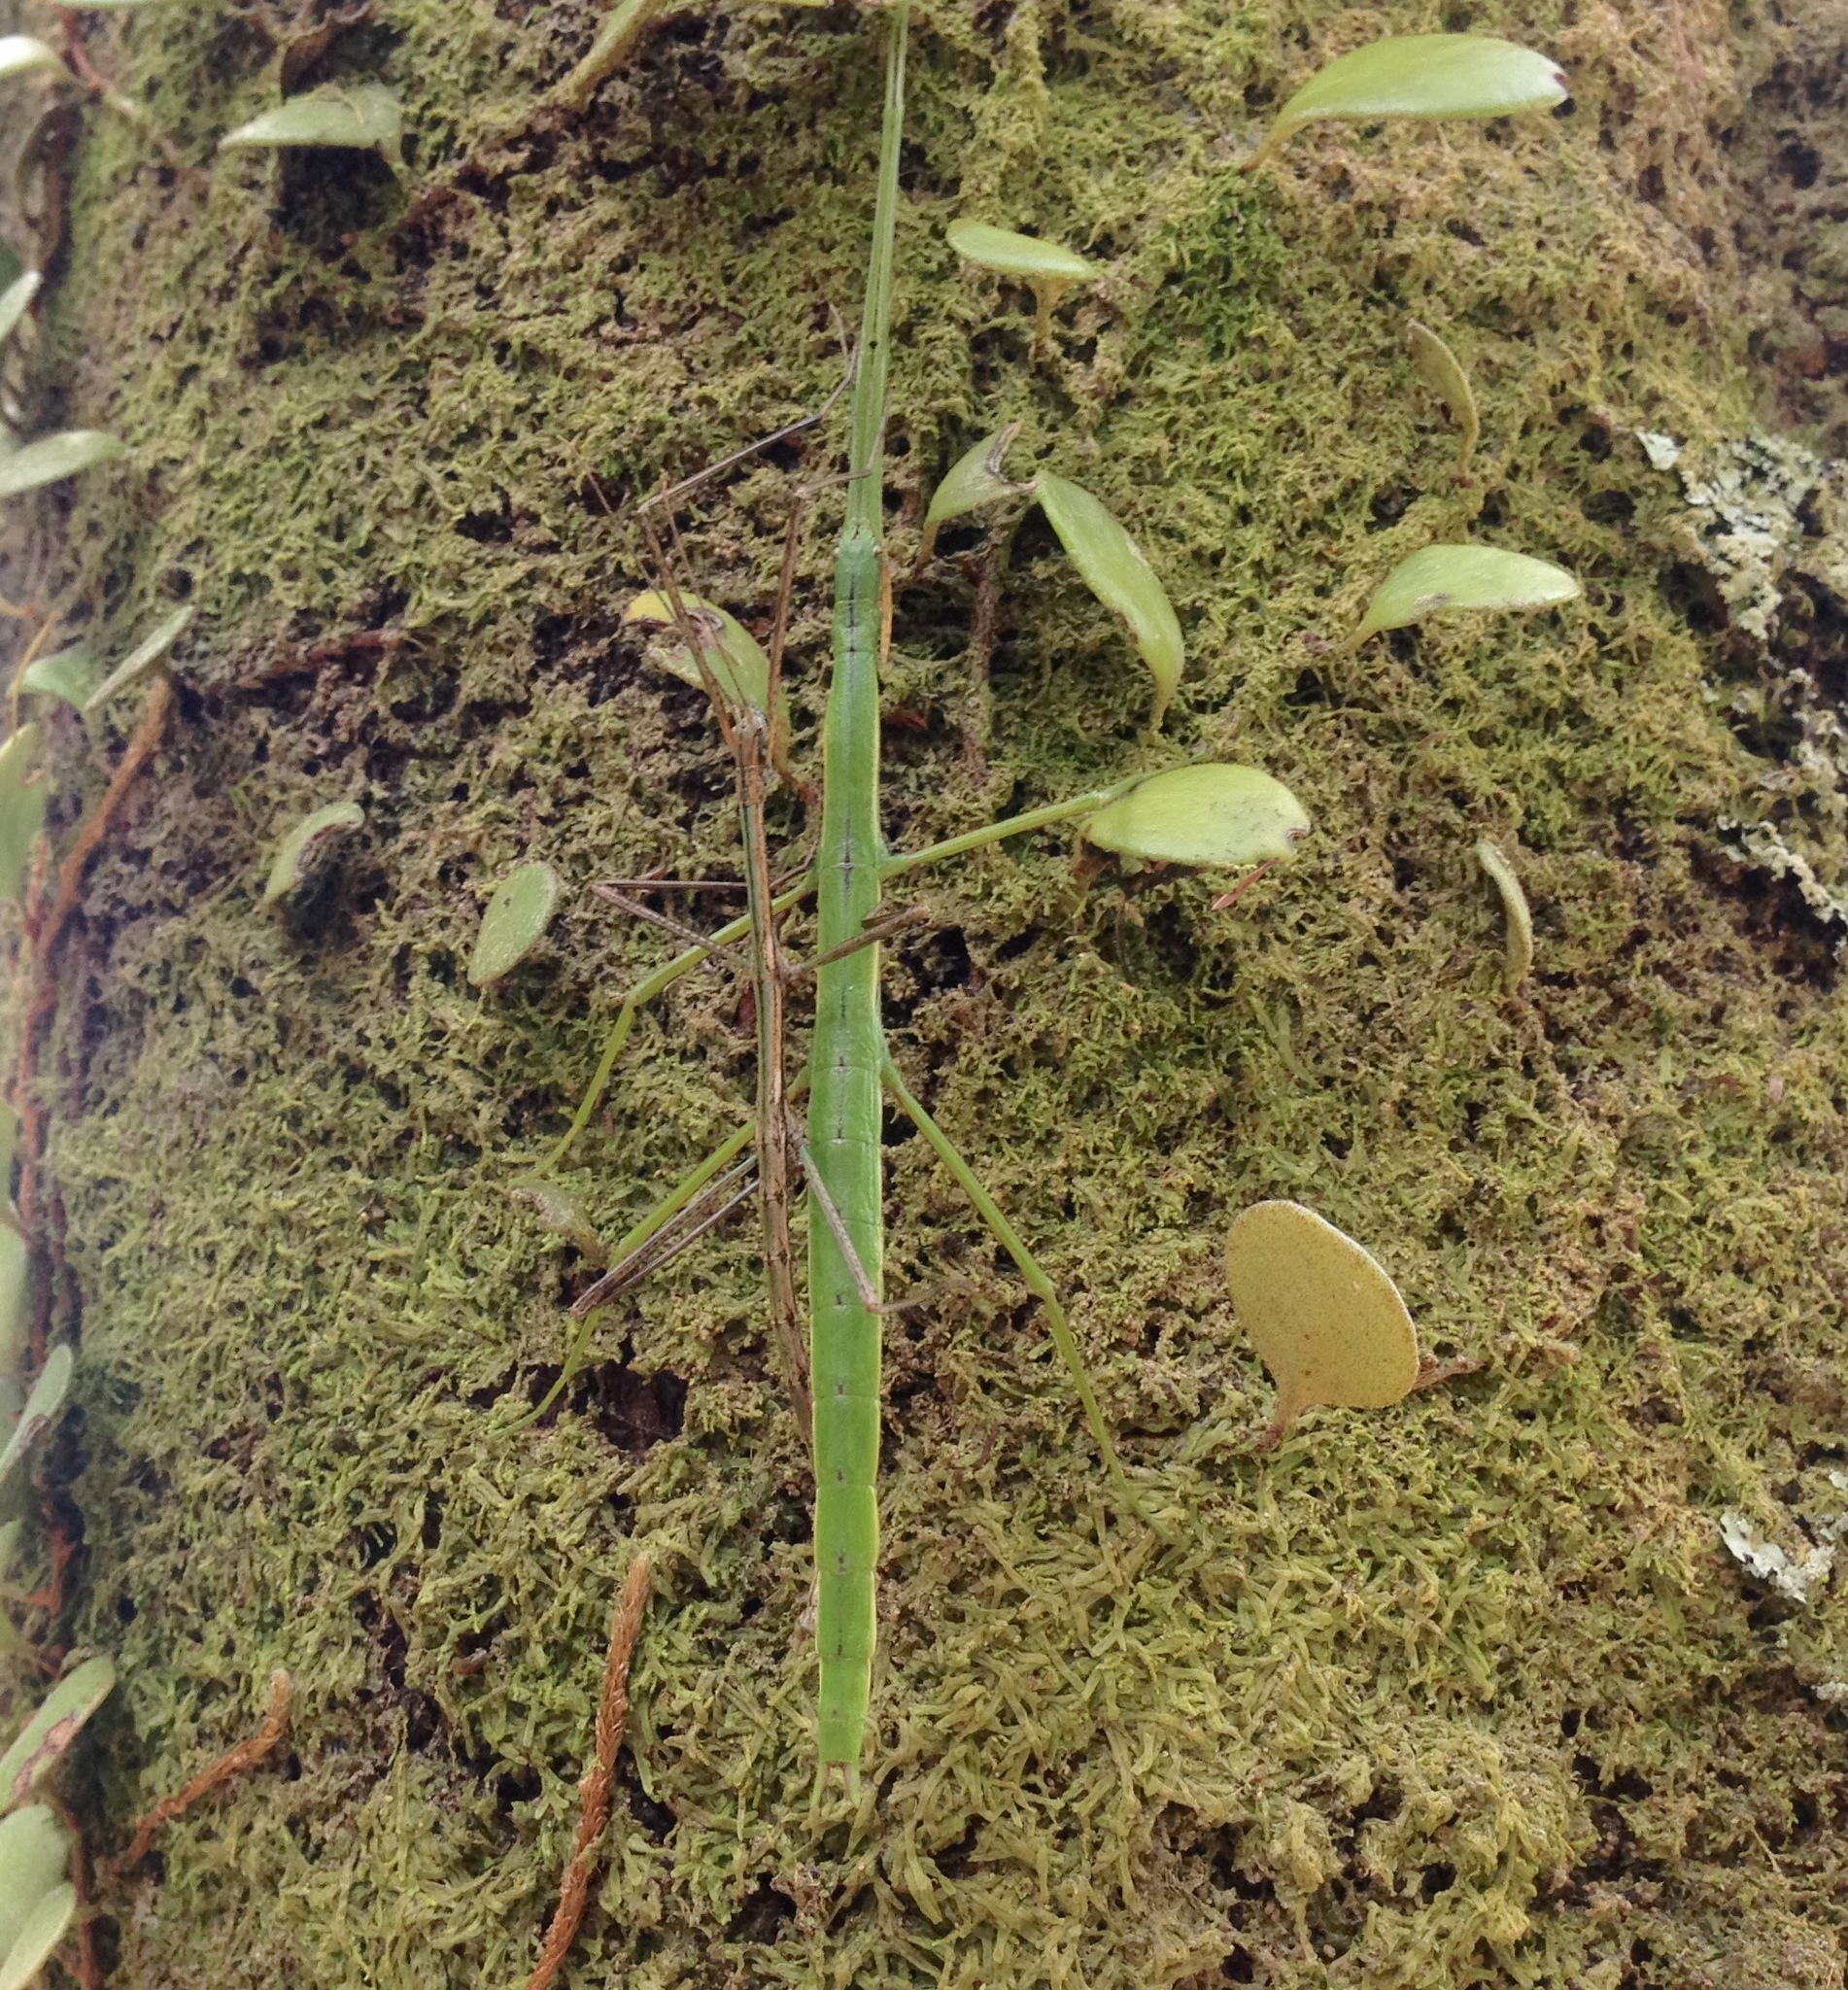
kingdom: Animalia
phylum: Arthropoda
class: Insecta
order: Phasmida
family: Phasmatidae
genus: Clitarchus
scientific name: Clitarchus hookeri
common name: Smooth stick insect
